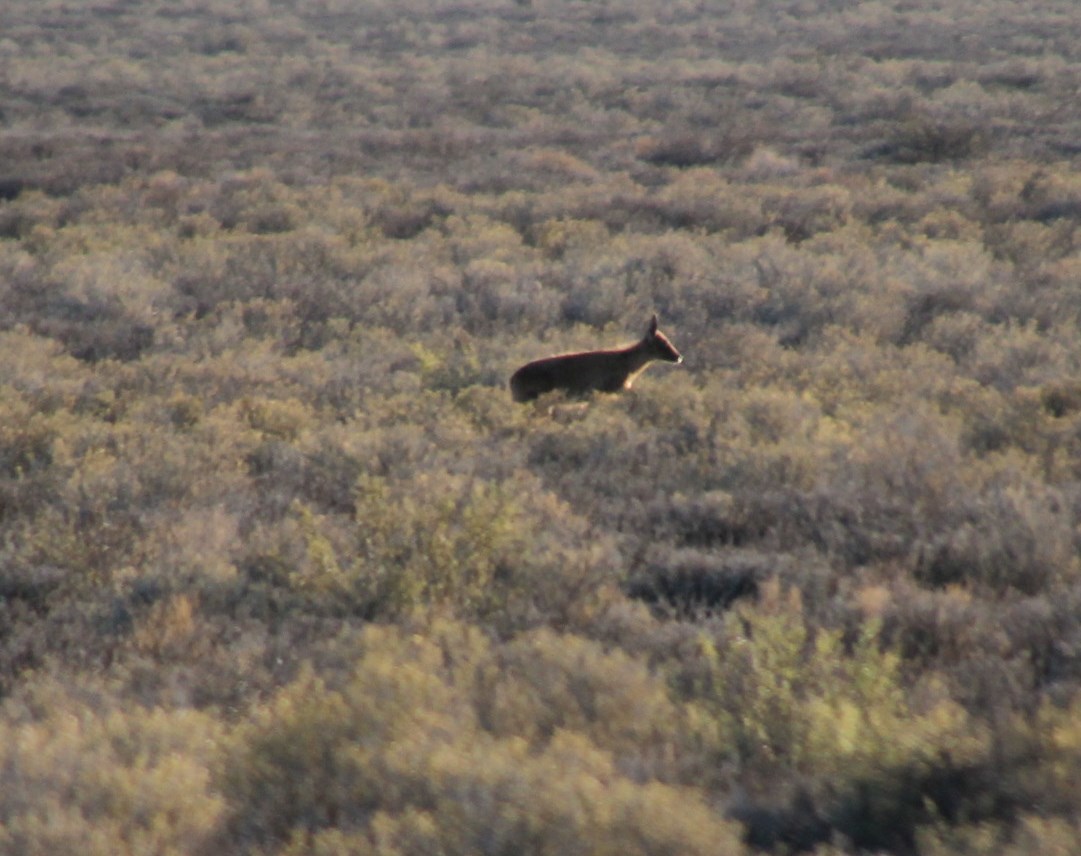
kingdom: Animalia
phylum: Chordata
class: Mammalia
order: Artiodactyla
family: Bovidae
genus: Sylvicapra
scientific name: Sylvicapra grimmia
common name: Bush duiker
